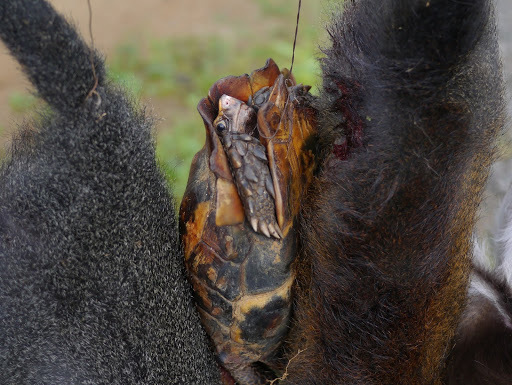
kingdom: Animalia
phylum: Chordata
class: Testudines
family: Testudinidae
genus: Kinixys
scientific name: Kinixys erosa
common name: Serrated hinge-back tortoise
